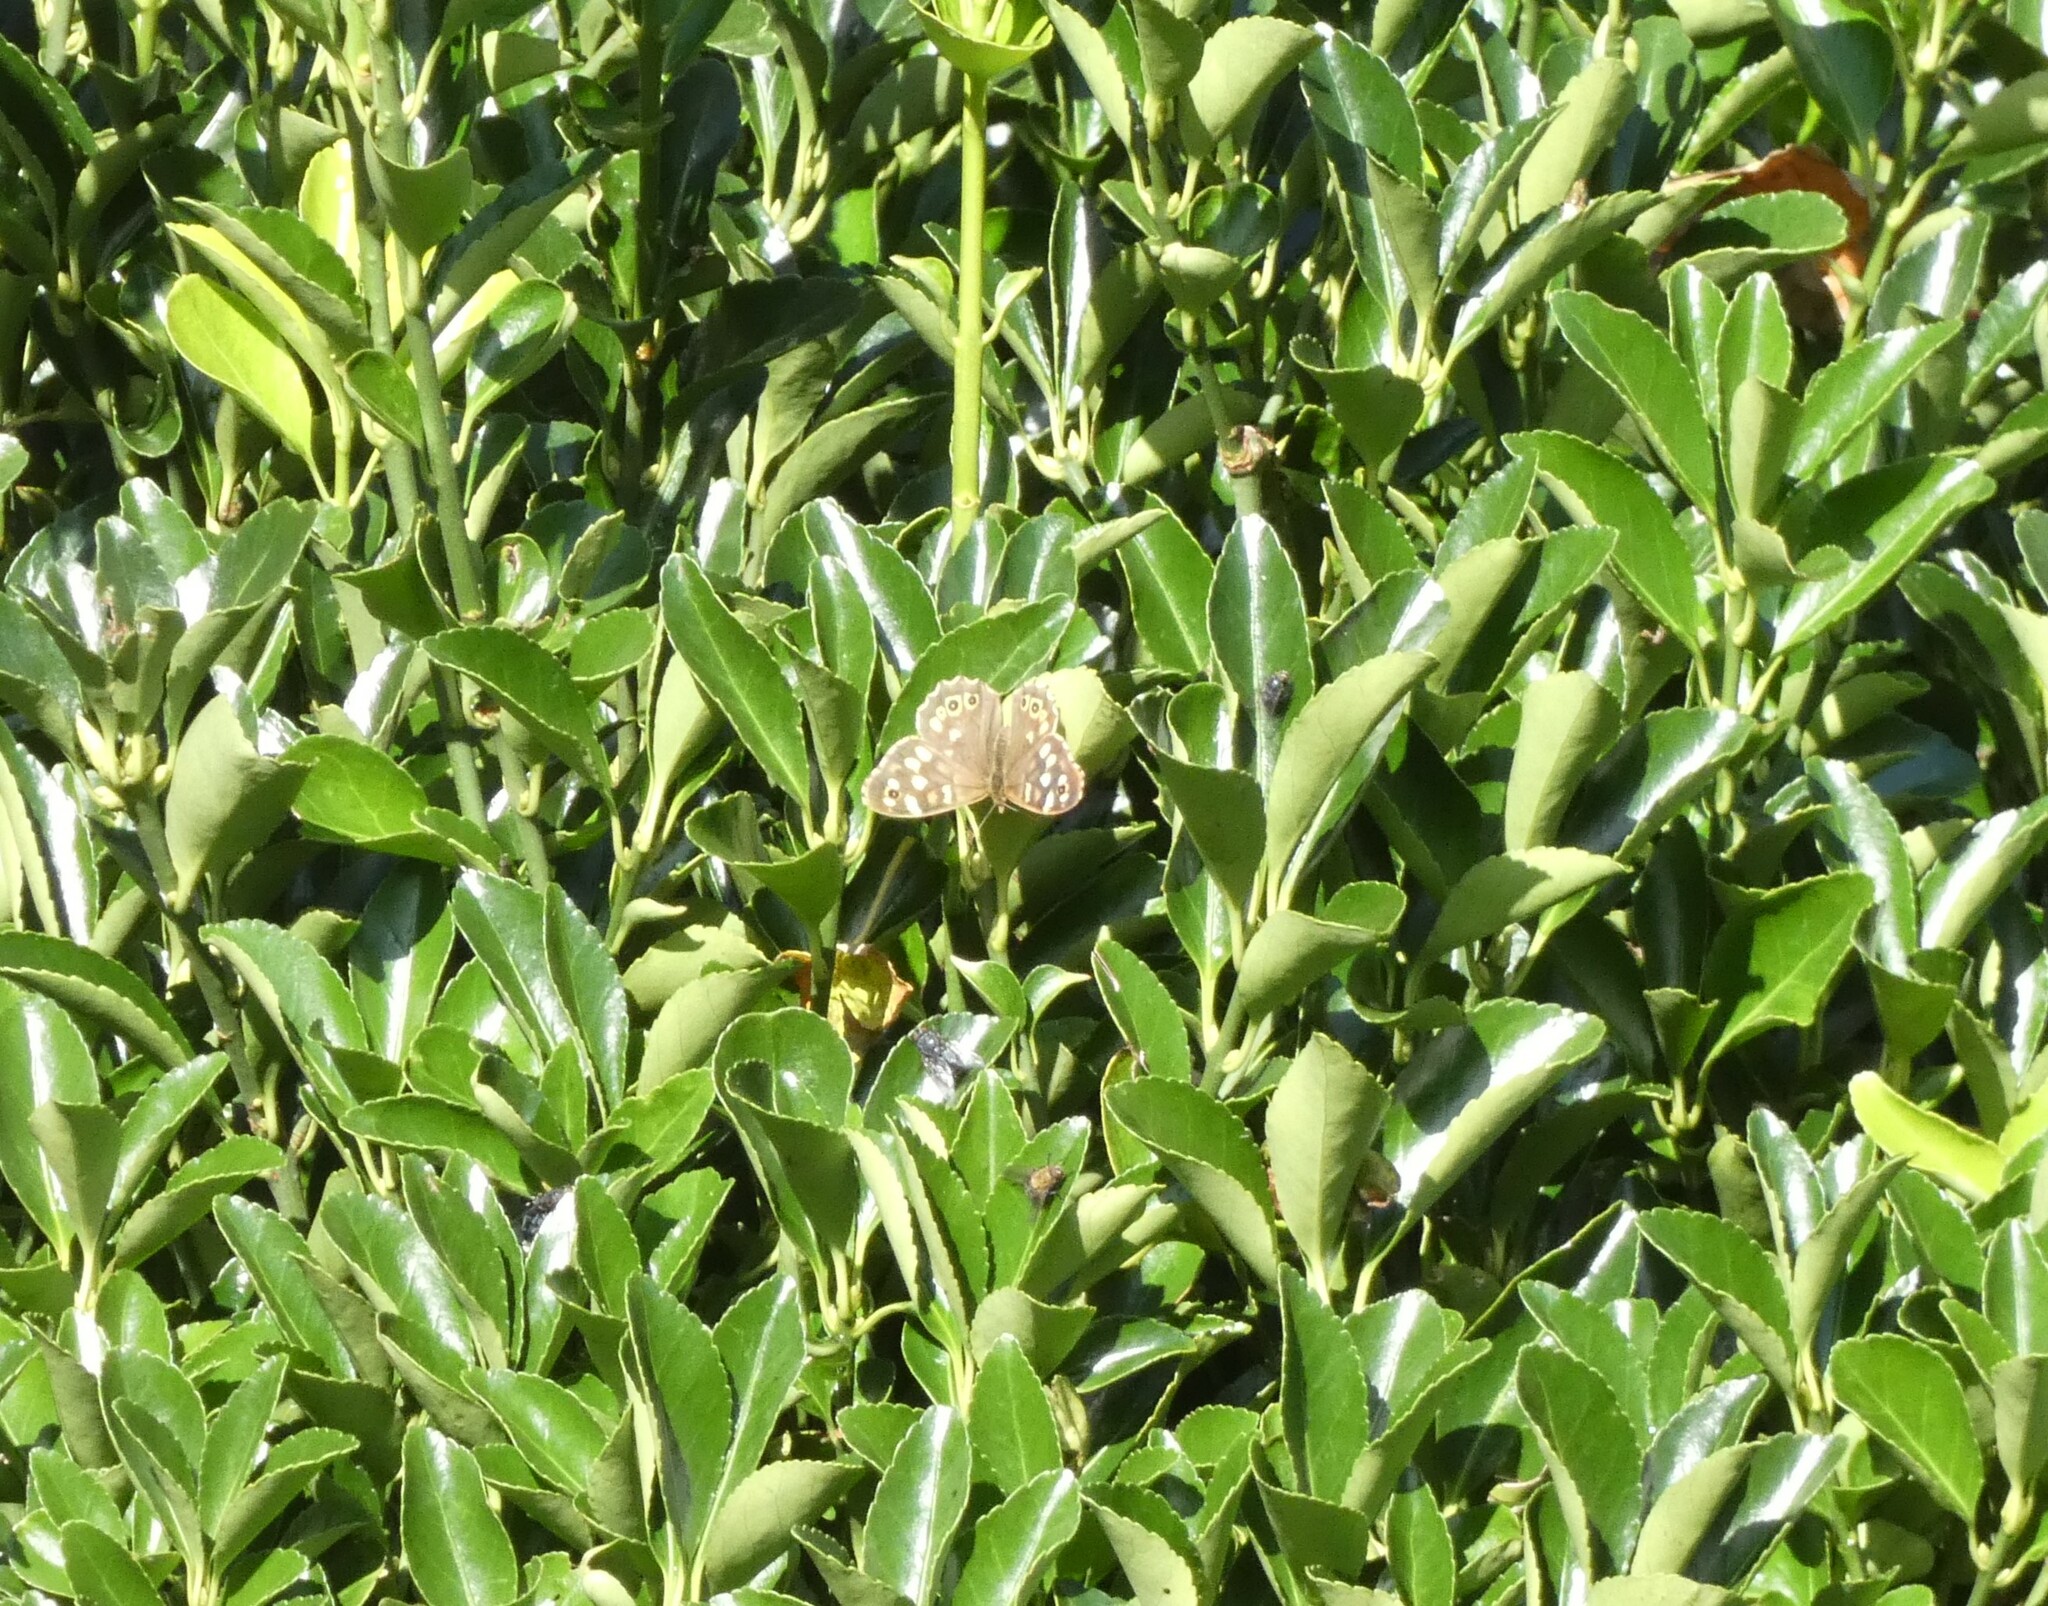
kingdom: Animalia
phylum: Arthropoda
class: Insecta
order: Lepidoptera
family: Nymphalidae
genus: Pararge
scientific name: Pararge aegeria
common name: Speckled wood
